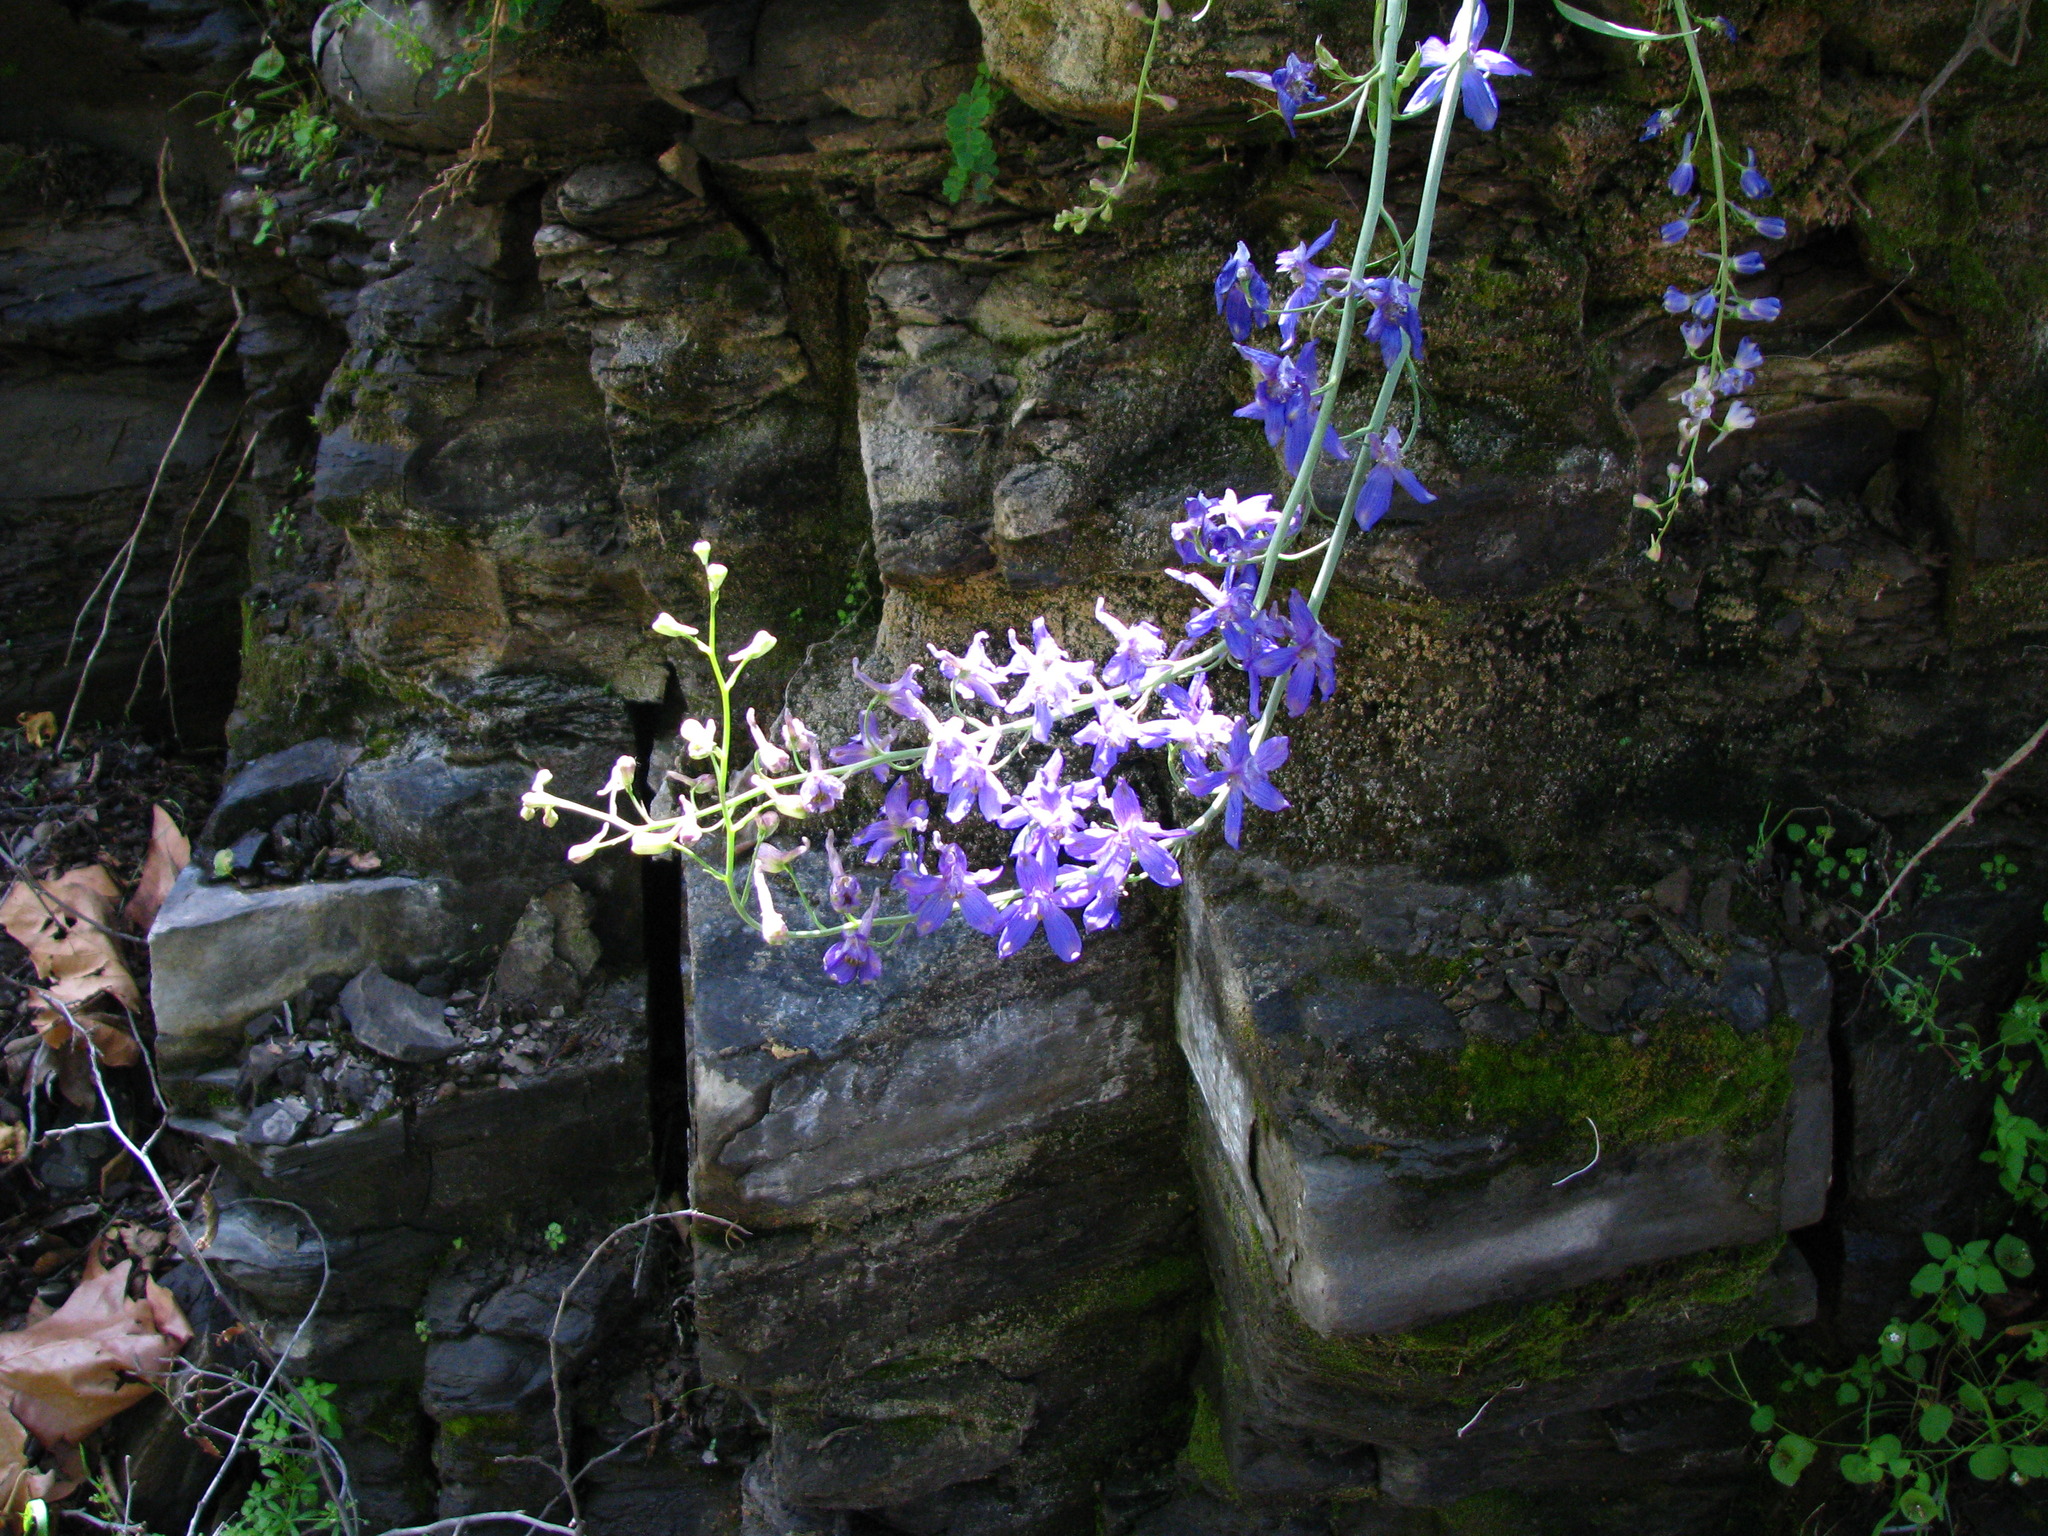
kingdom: Plantae
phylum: Tracheophyta
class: Magnoliopsida
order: Ranunculales
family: Ranunculaceae
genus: Delphinium
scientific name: Delphinium umbraculorum
